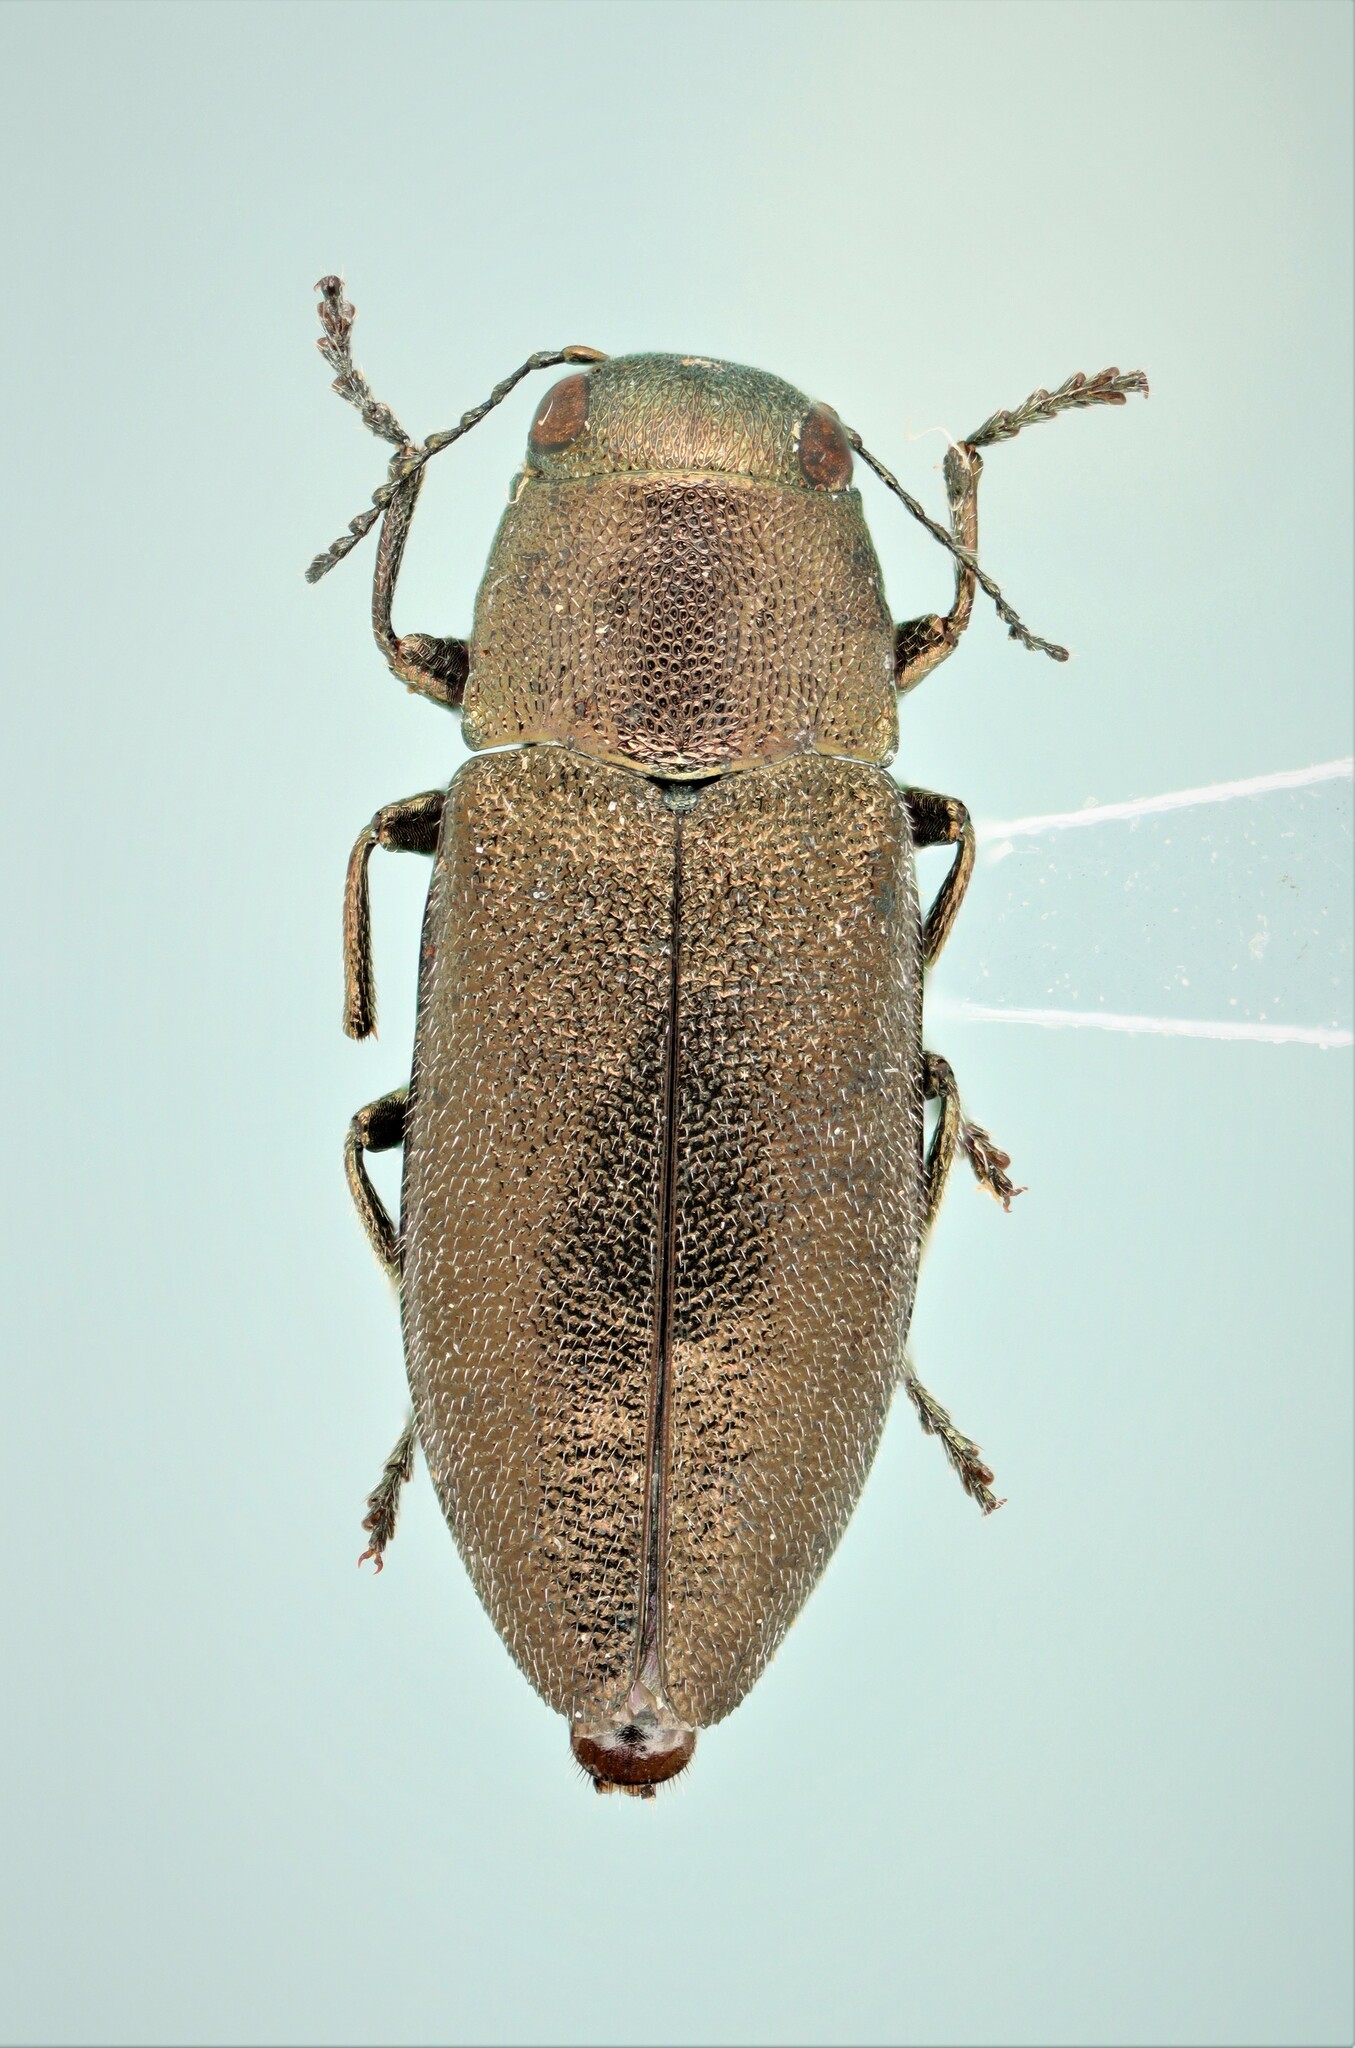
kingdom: Animalia
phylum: Arthropoda
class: Insecta
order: Coleoptera
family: Buprestidae
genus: Phaenops
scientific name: Phaenops aeneola
